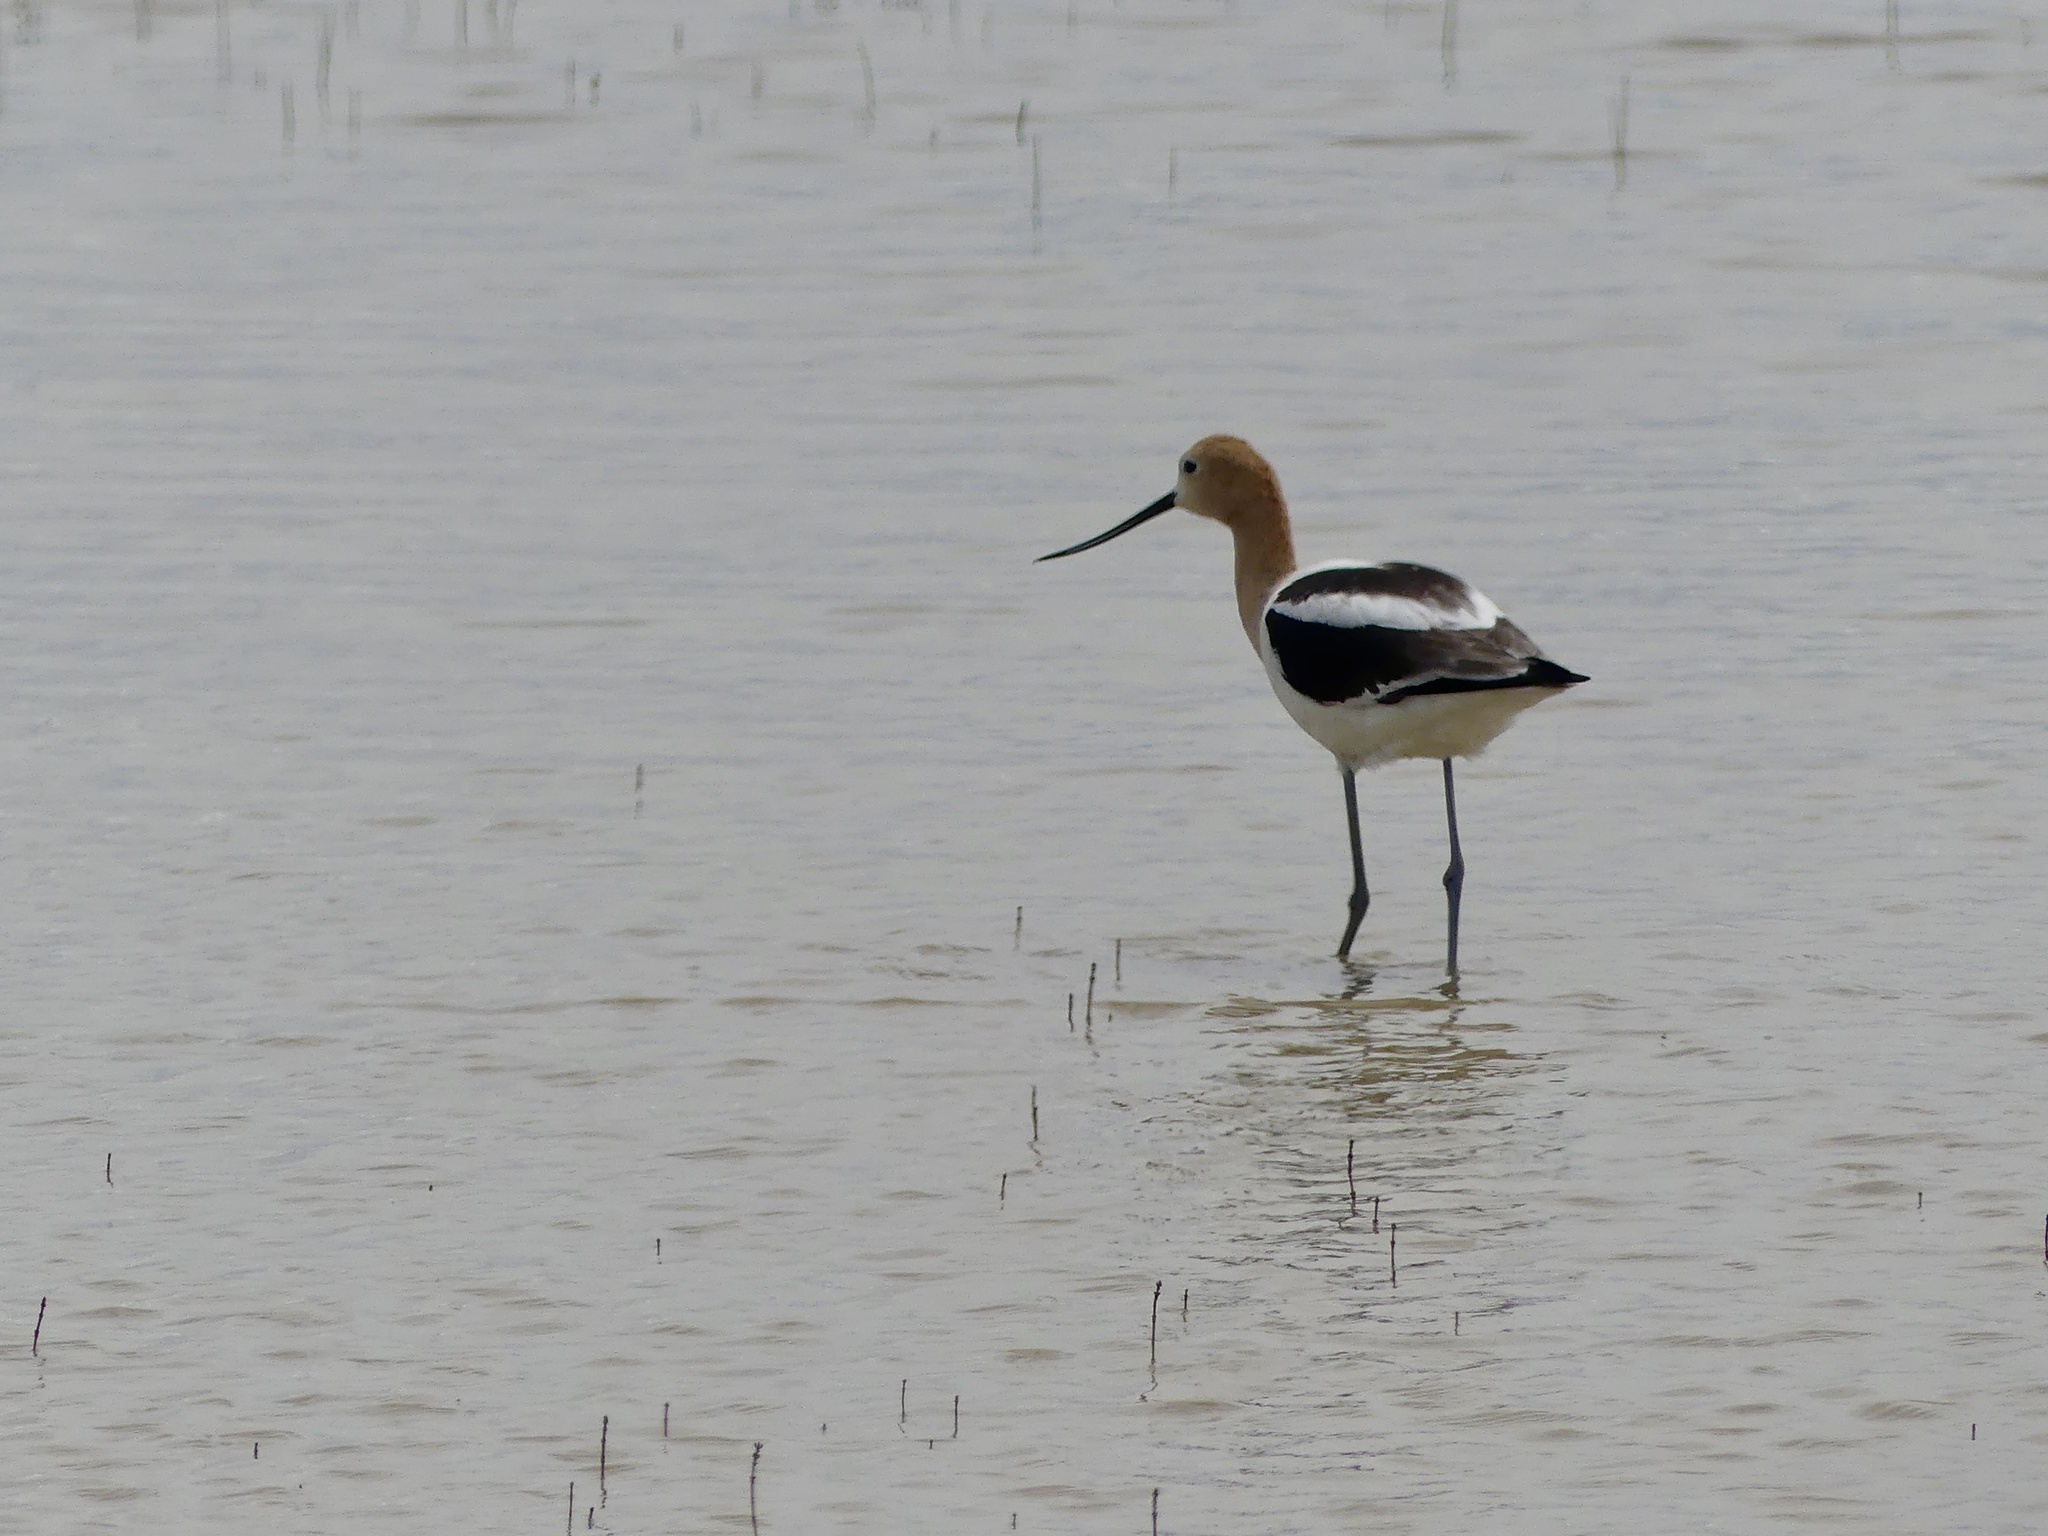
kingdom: Animalia
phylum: Chordata
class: Aves
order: Charadriiformes
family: Recurvirostridae
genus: Recurvirostra
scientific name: Recurvirostra americana
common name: American avocet
